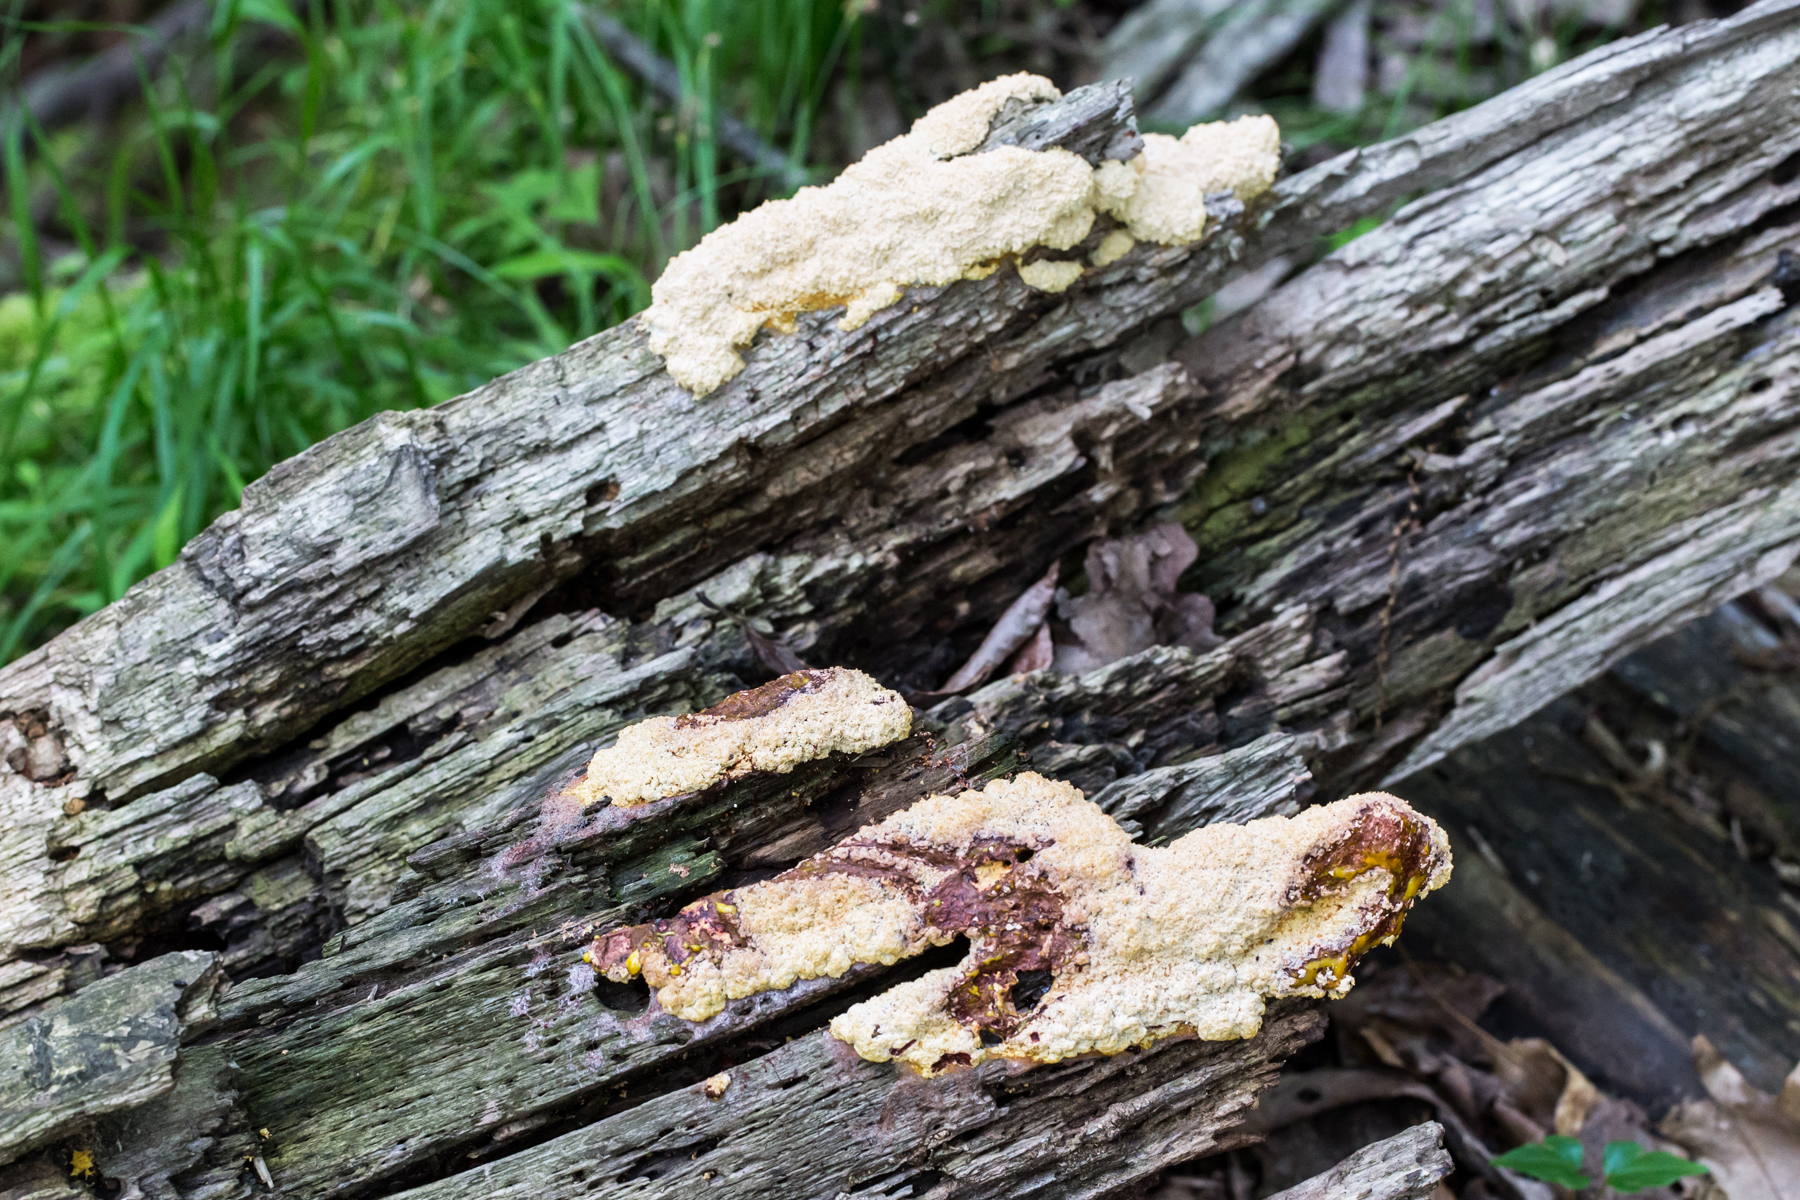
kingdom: Protozoa
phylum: Mycetozoa
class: Myxomycetes
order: Physarales
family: Physaraceae
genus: Fuligo
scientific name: Fuligo septica
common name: Dog vomit slime mold
